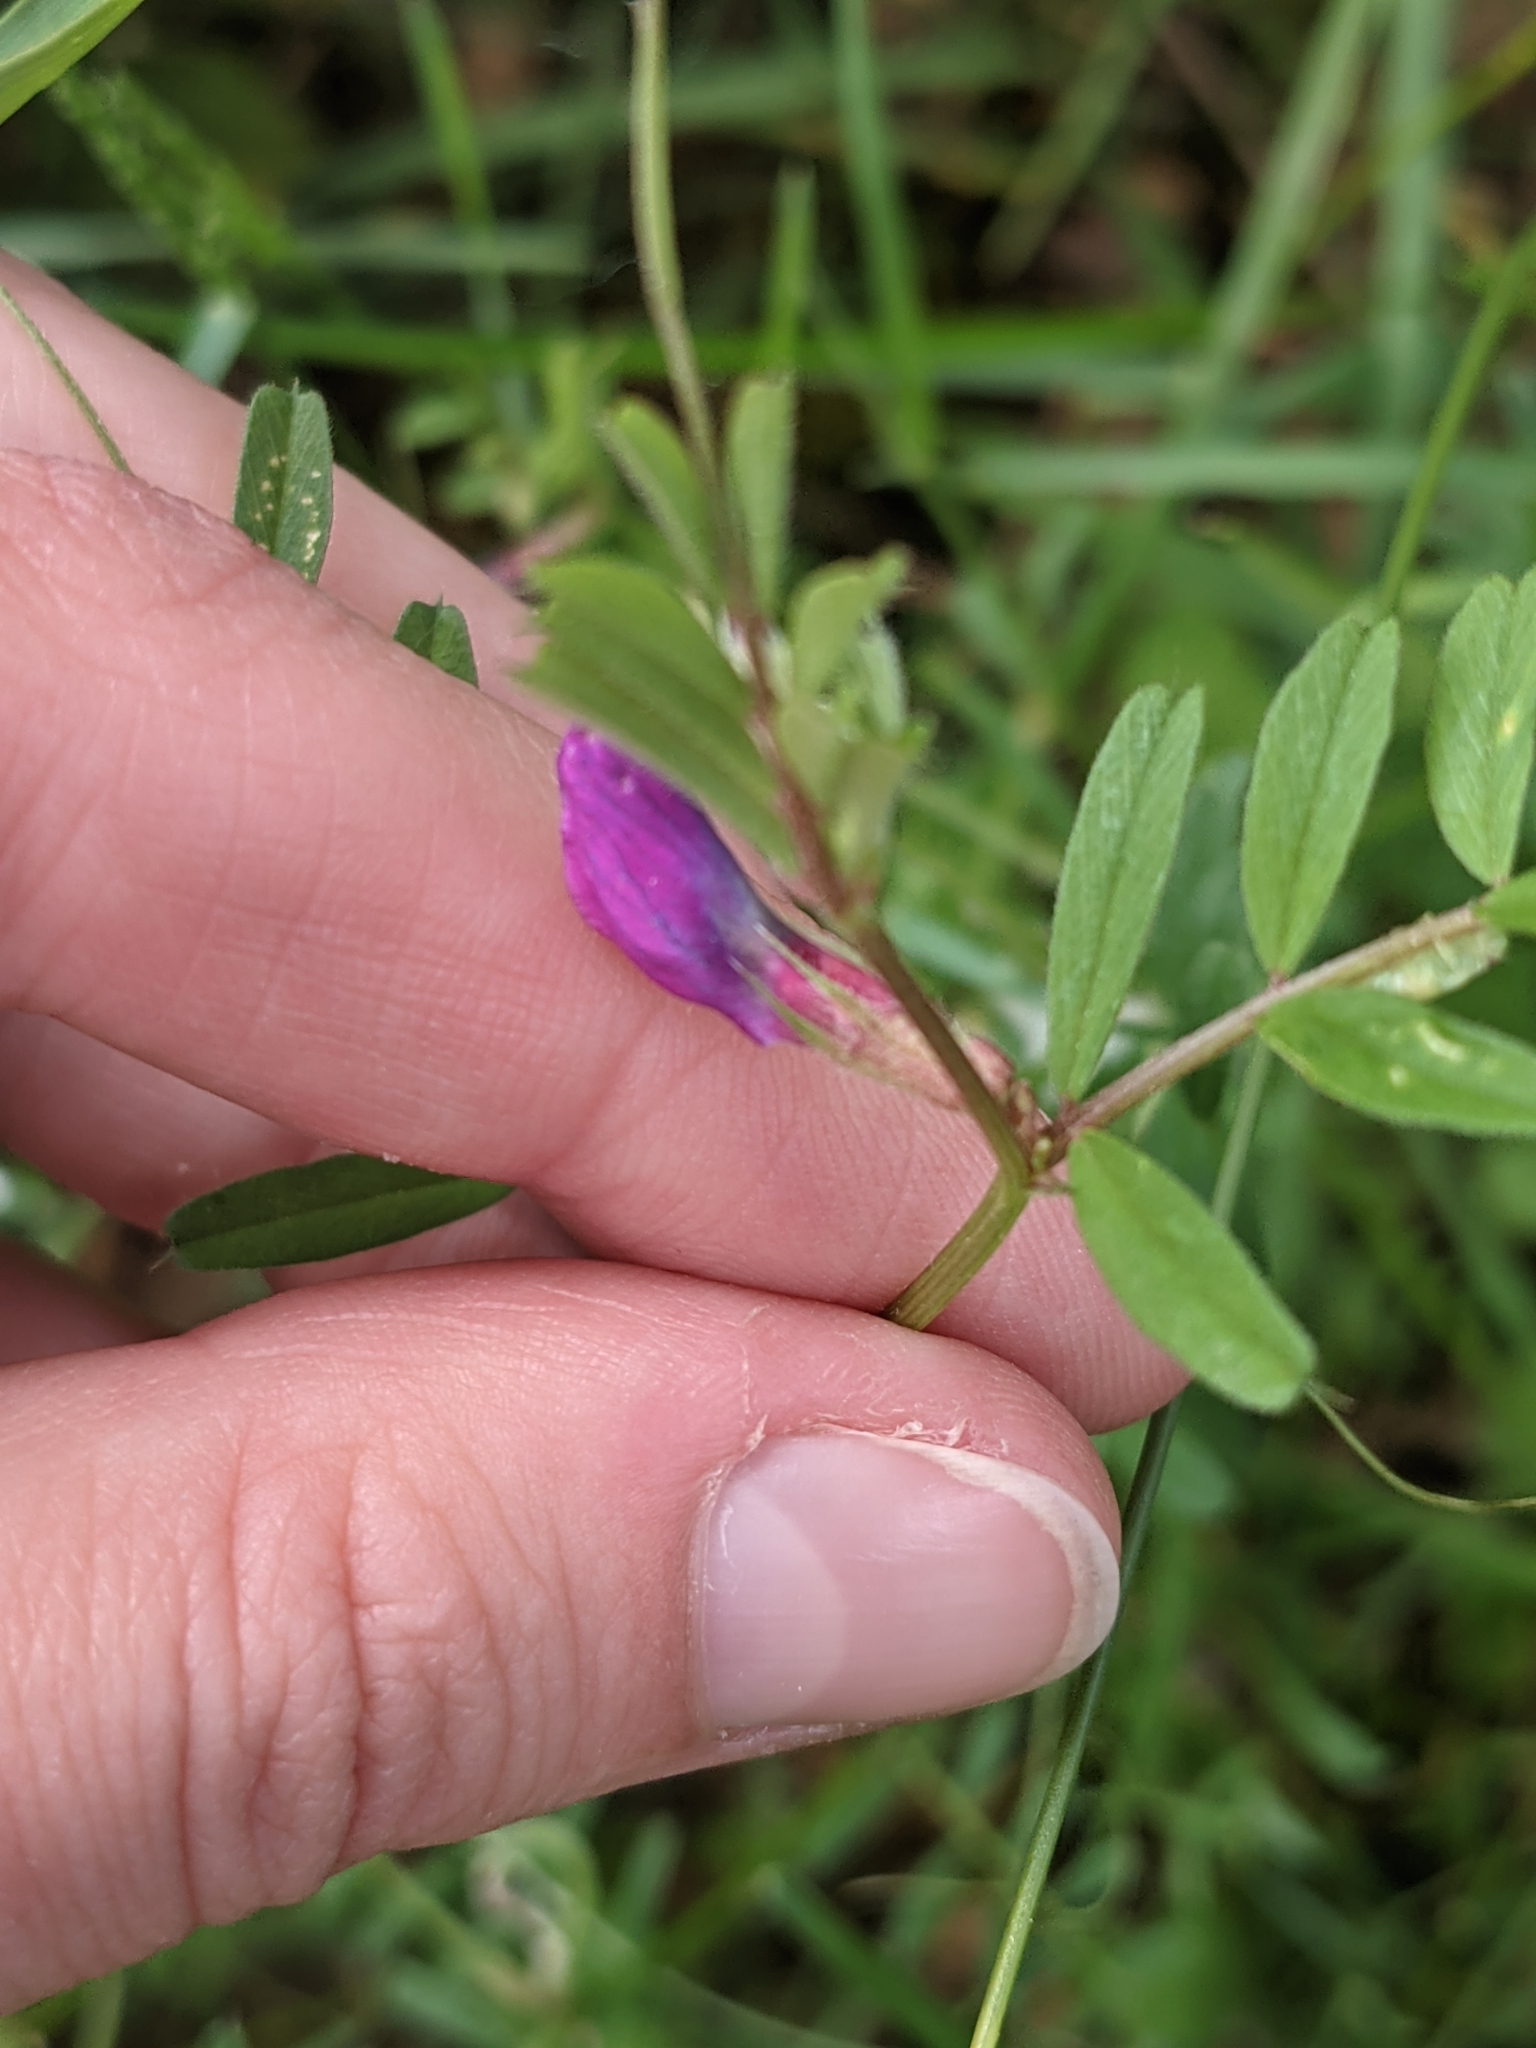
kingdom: Plantae
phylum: Tracheophyta
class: Magnoliopsida
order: Fabales
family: Fabaceae
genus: Vicia
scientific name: Vicia sativa
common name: Garden vetch
